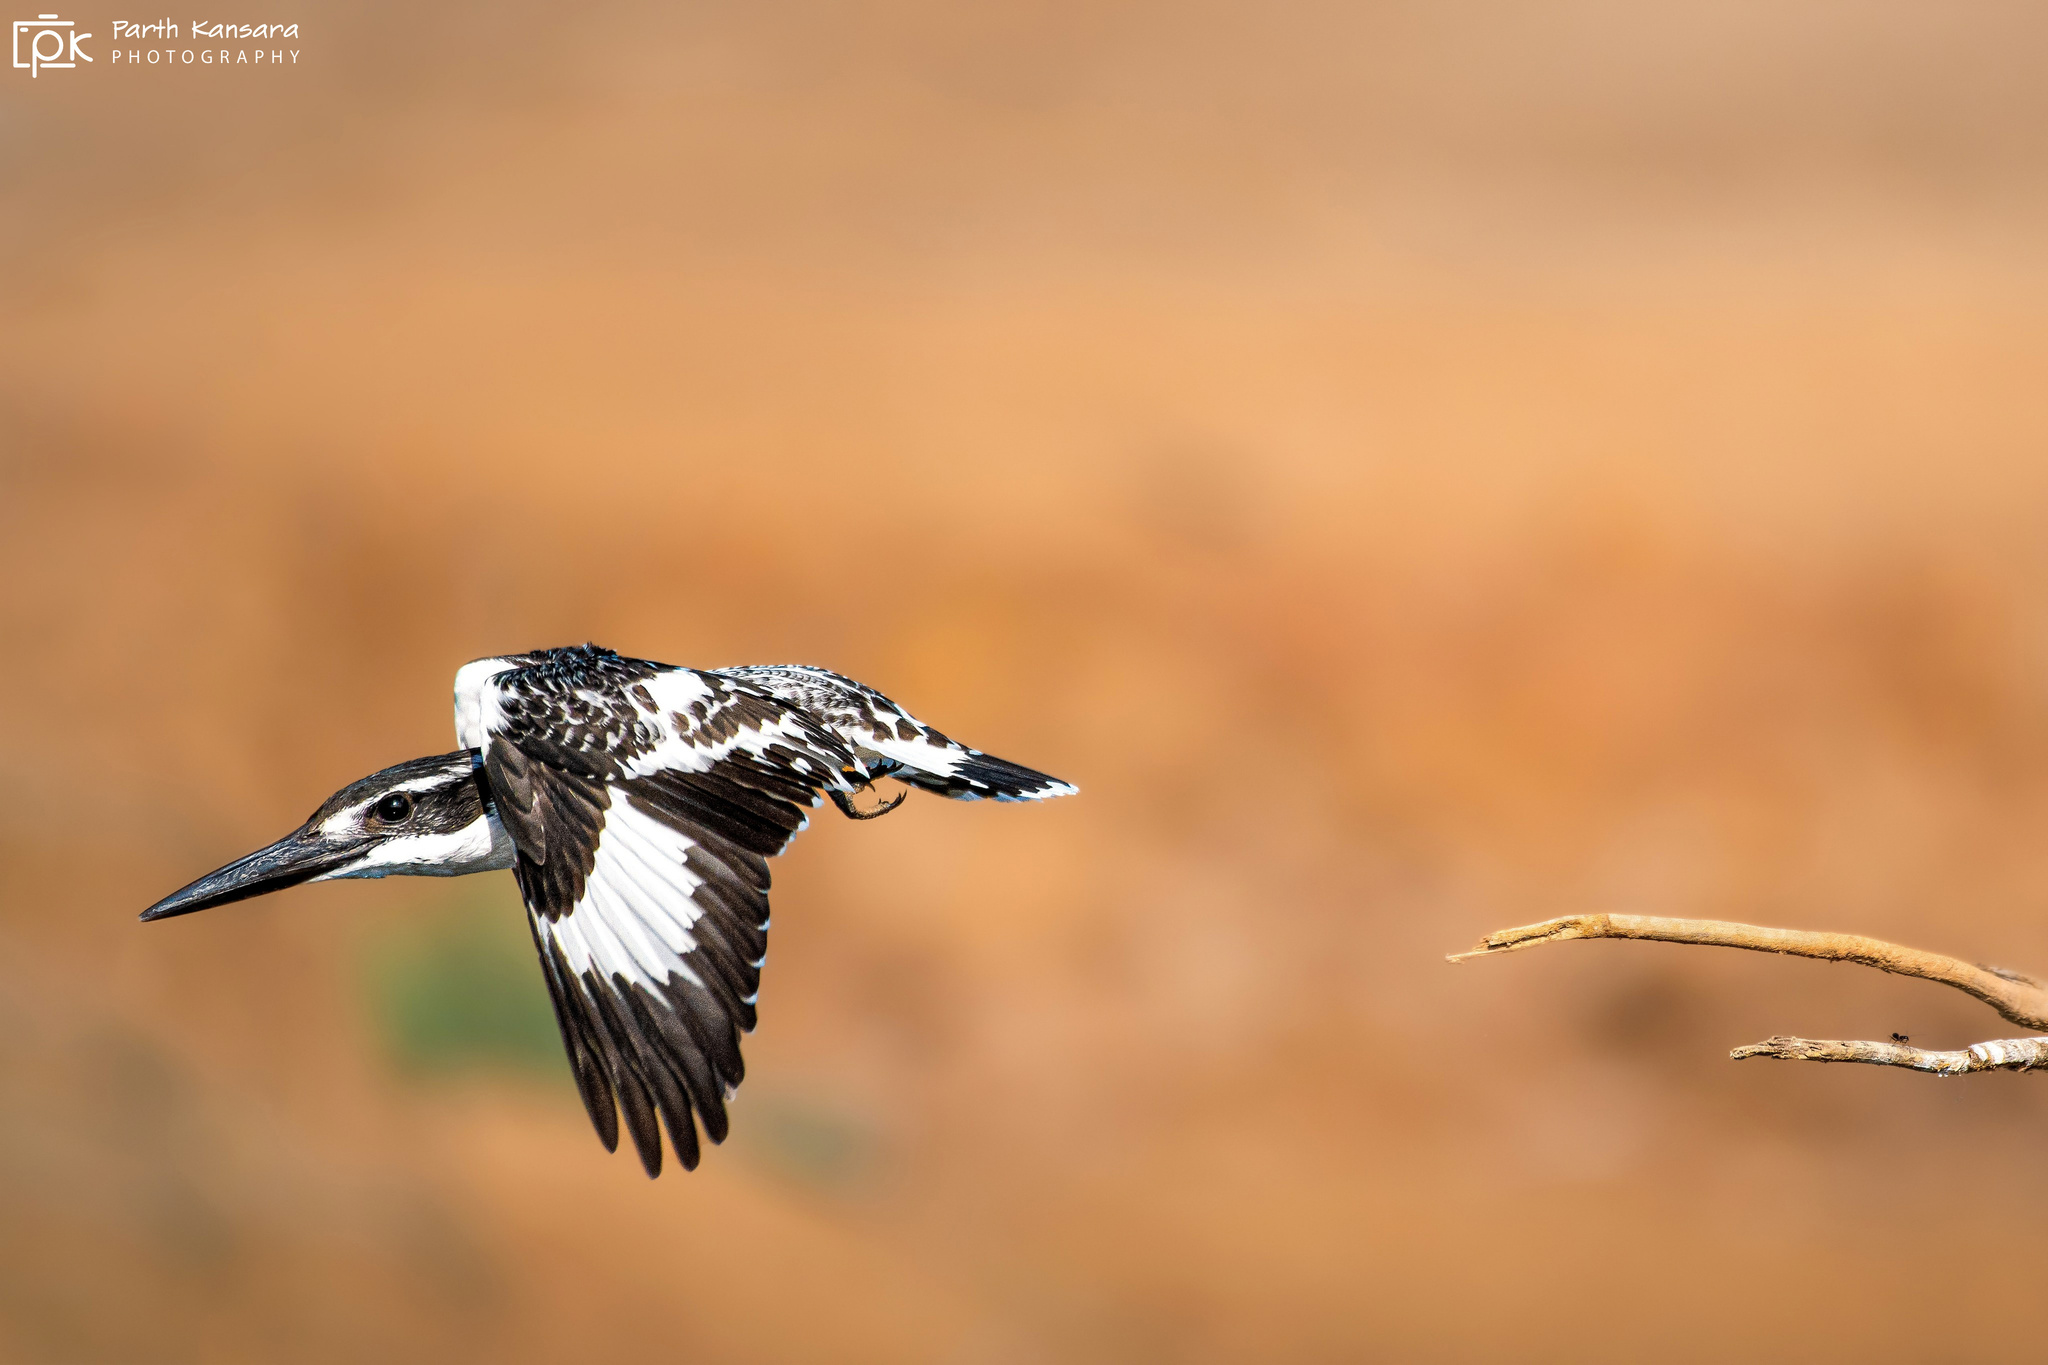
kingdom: Animalia
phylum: Chordata
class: Aves
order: Coraciiformes
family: Alcedinidae
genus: Ceryle
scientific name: Ceryle rudis
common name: Pied kingfisher
